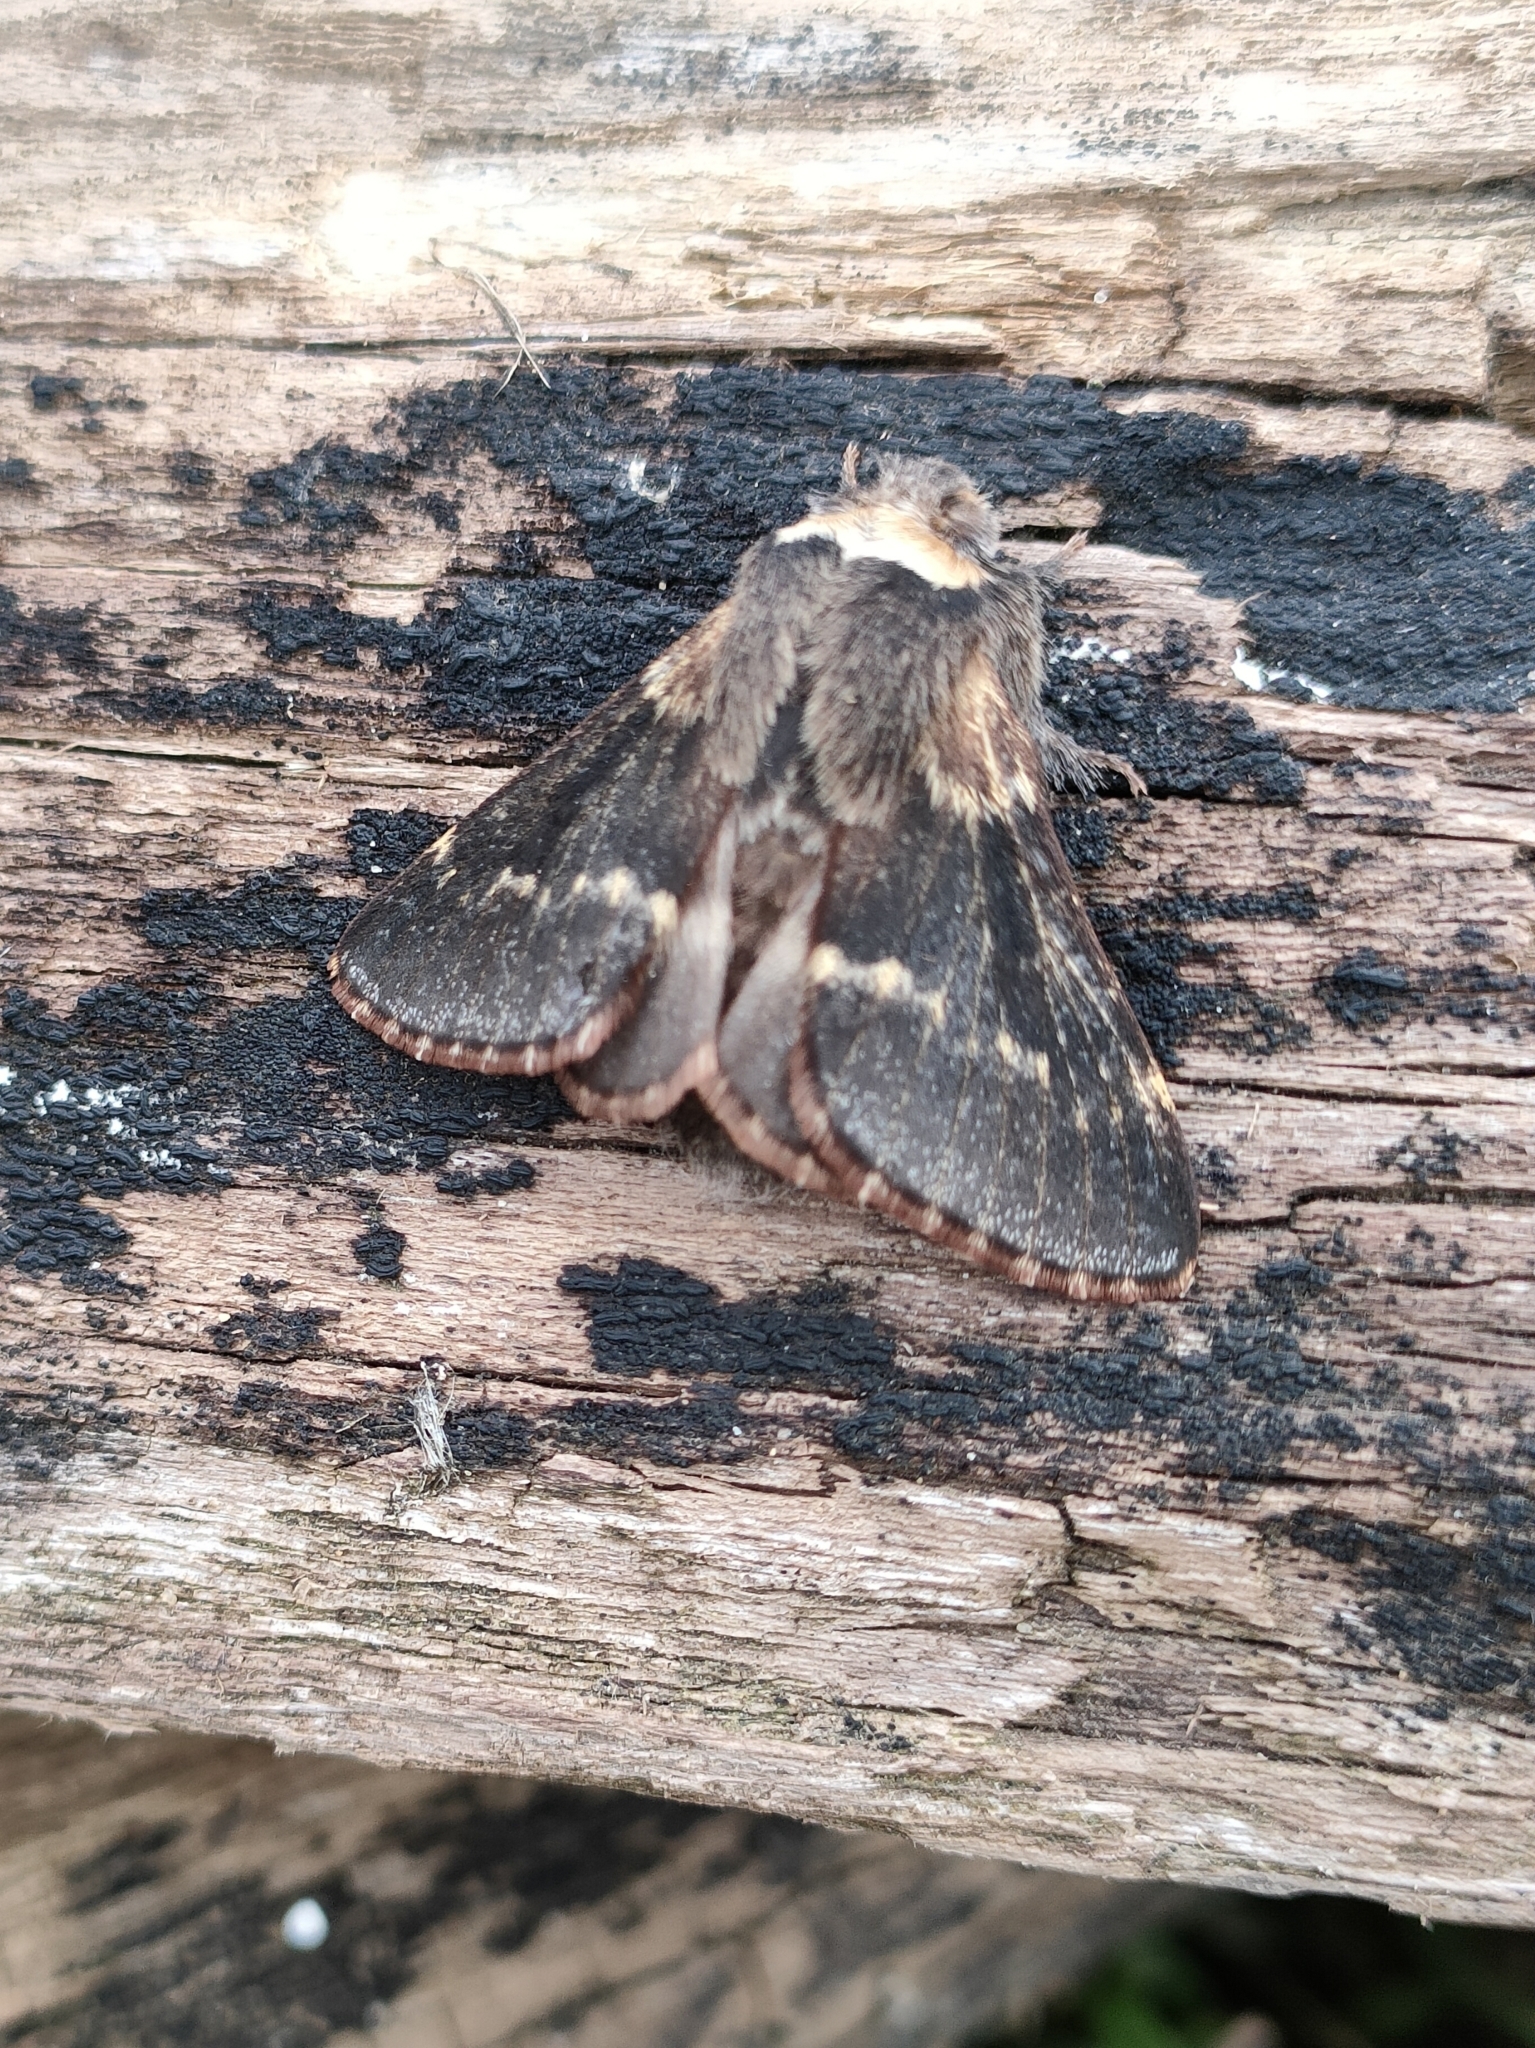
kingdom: Animalia
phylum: Arthropoda
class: Insecta
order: Lepidoptera
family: Lasiocampidae
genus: Poecilocampa
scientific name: Poecilocampa populi
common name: December moth
